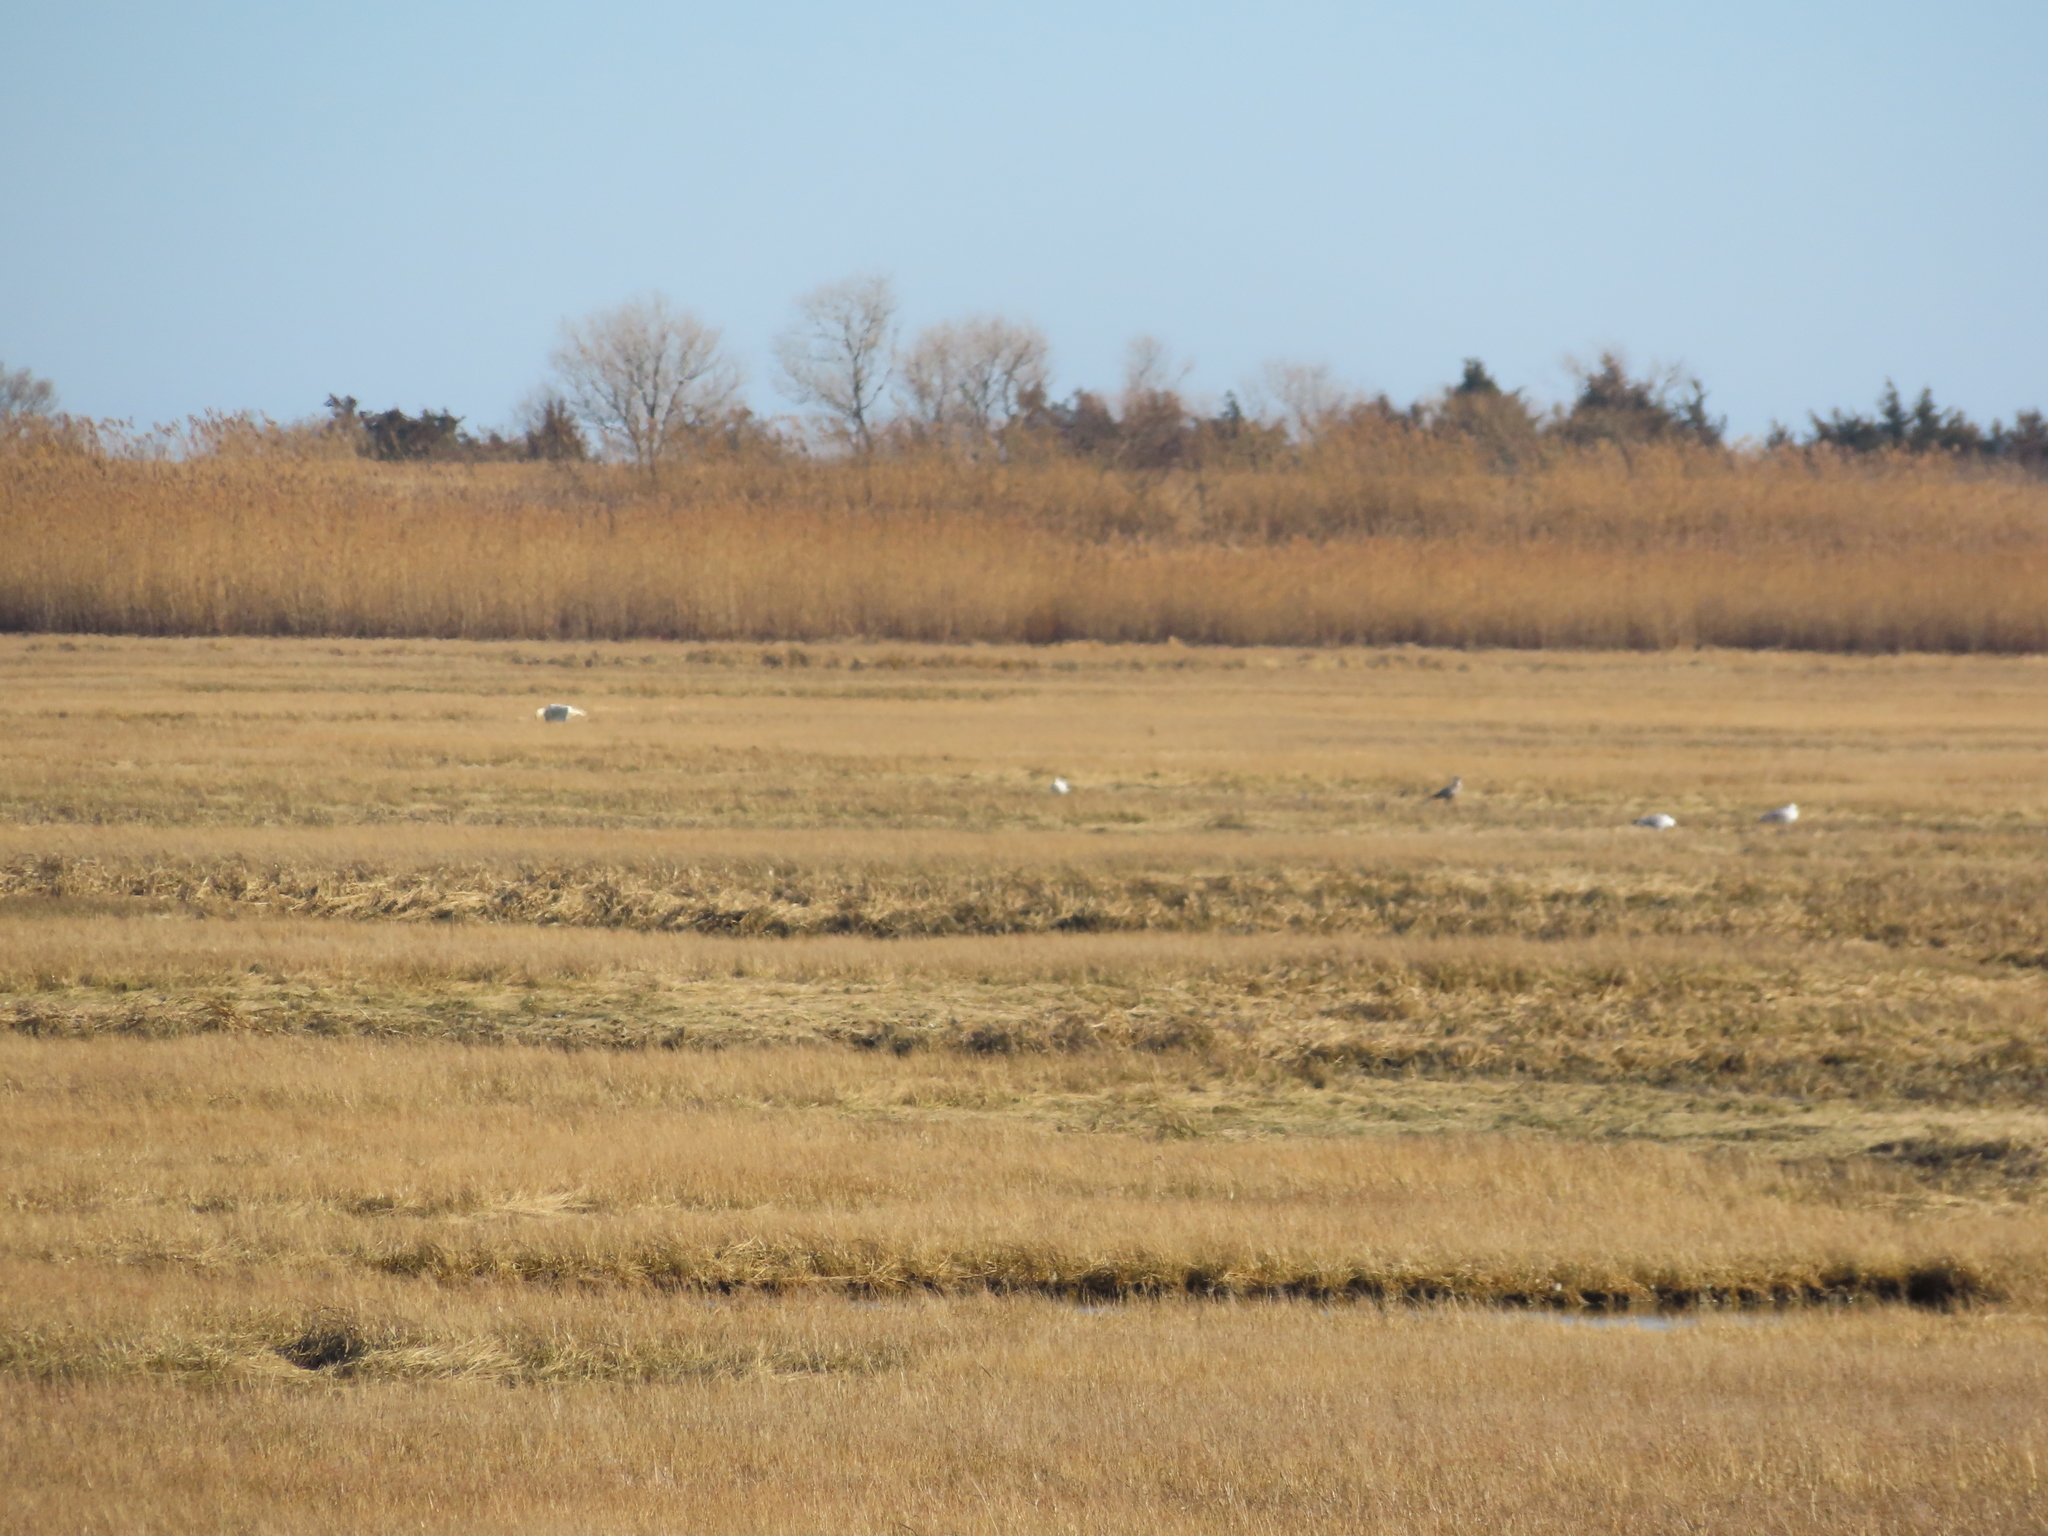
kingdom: Animalia
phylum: Chordata
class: Aves
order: Charadriiformes
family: Laridae
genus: Larus
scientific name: Larus argentatus
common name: Herring gull
